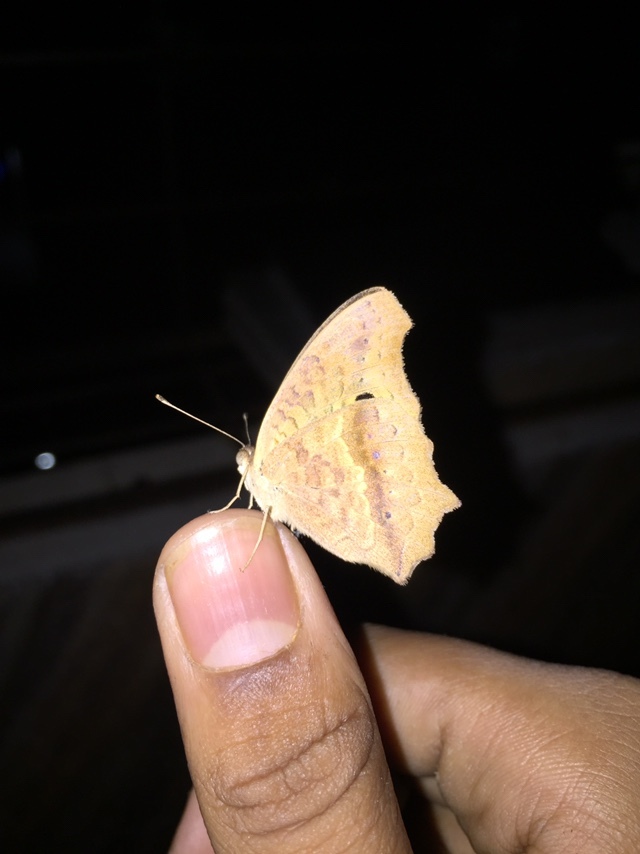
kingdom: Animalia
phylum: Arthropoda
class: Insecta
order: Lepidoptera
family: Nymphalidae
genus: Junonia
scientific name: Junonia lemonias
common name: Lemon pansy
